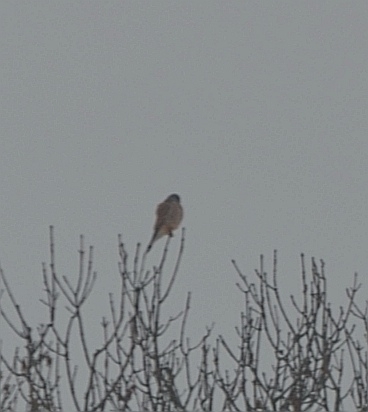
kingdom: Animalia
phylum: Chordata
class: Aves
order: Falconiformes
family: Falconidae
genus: Falco
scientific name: Falco tinnunculus
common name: Common kestrel
